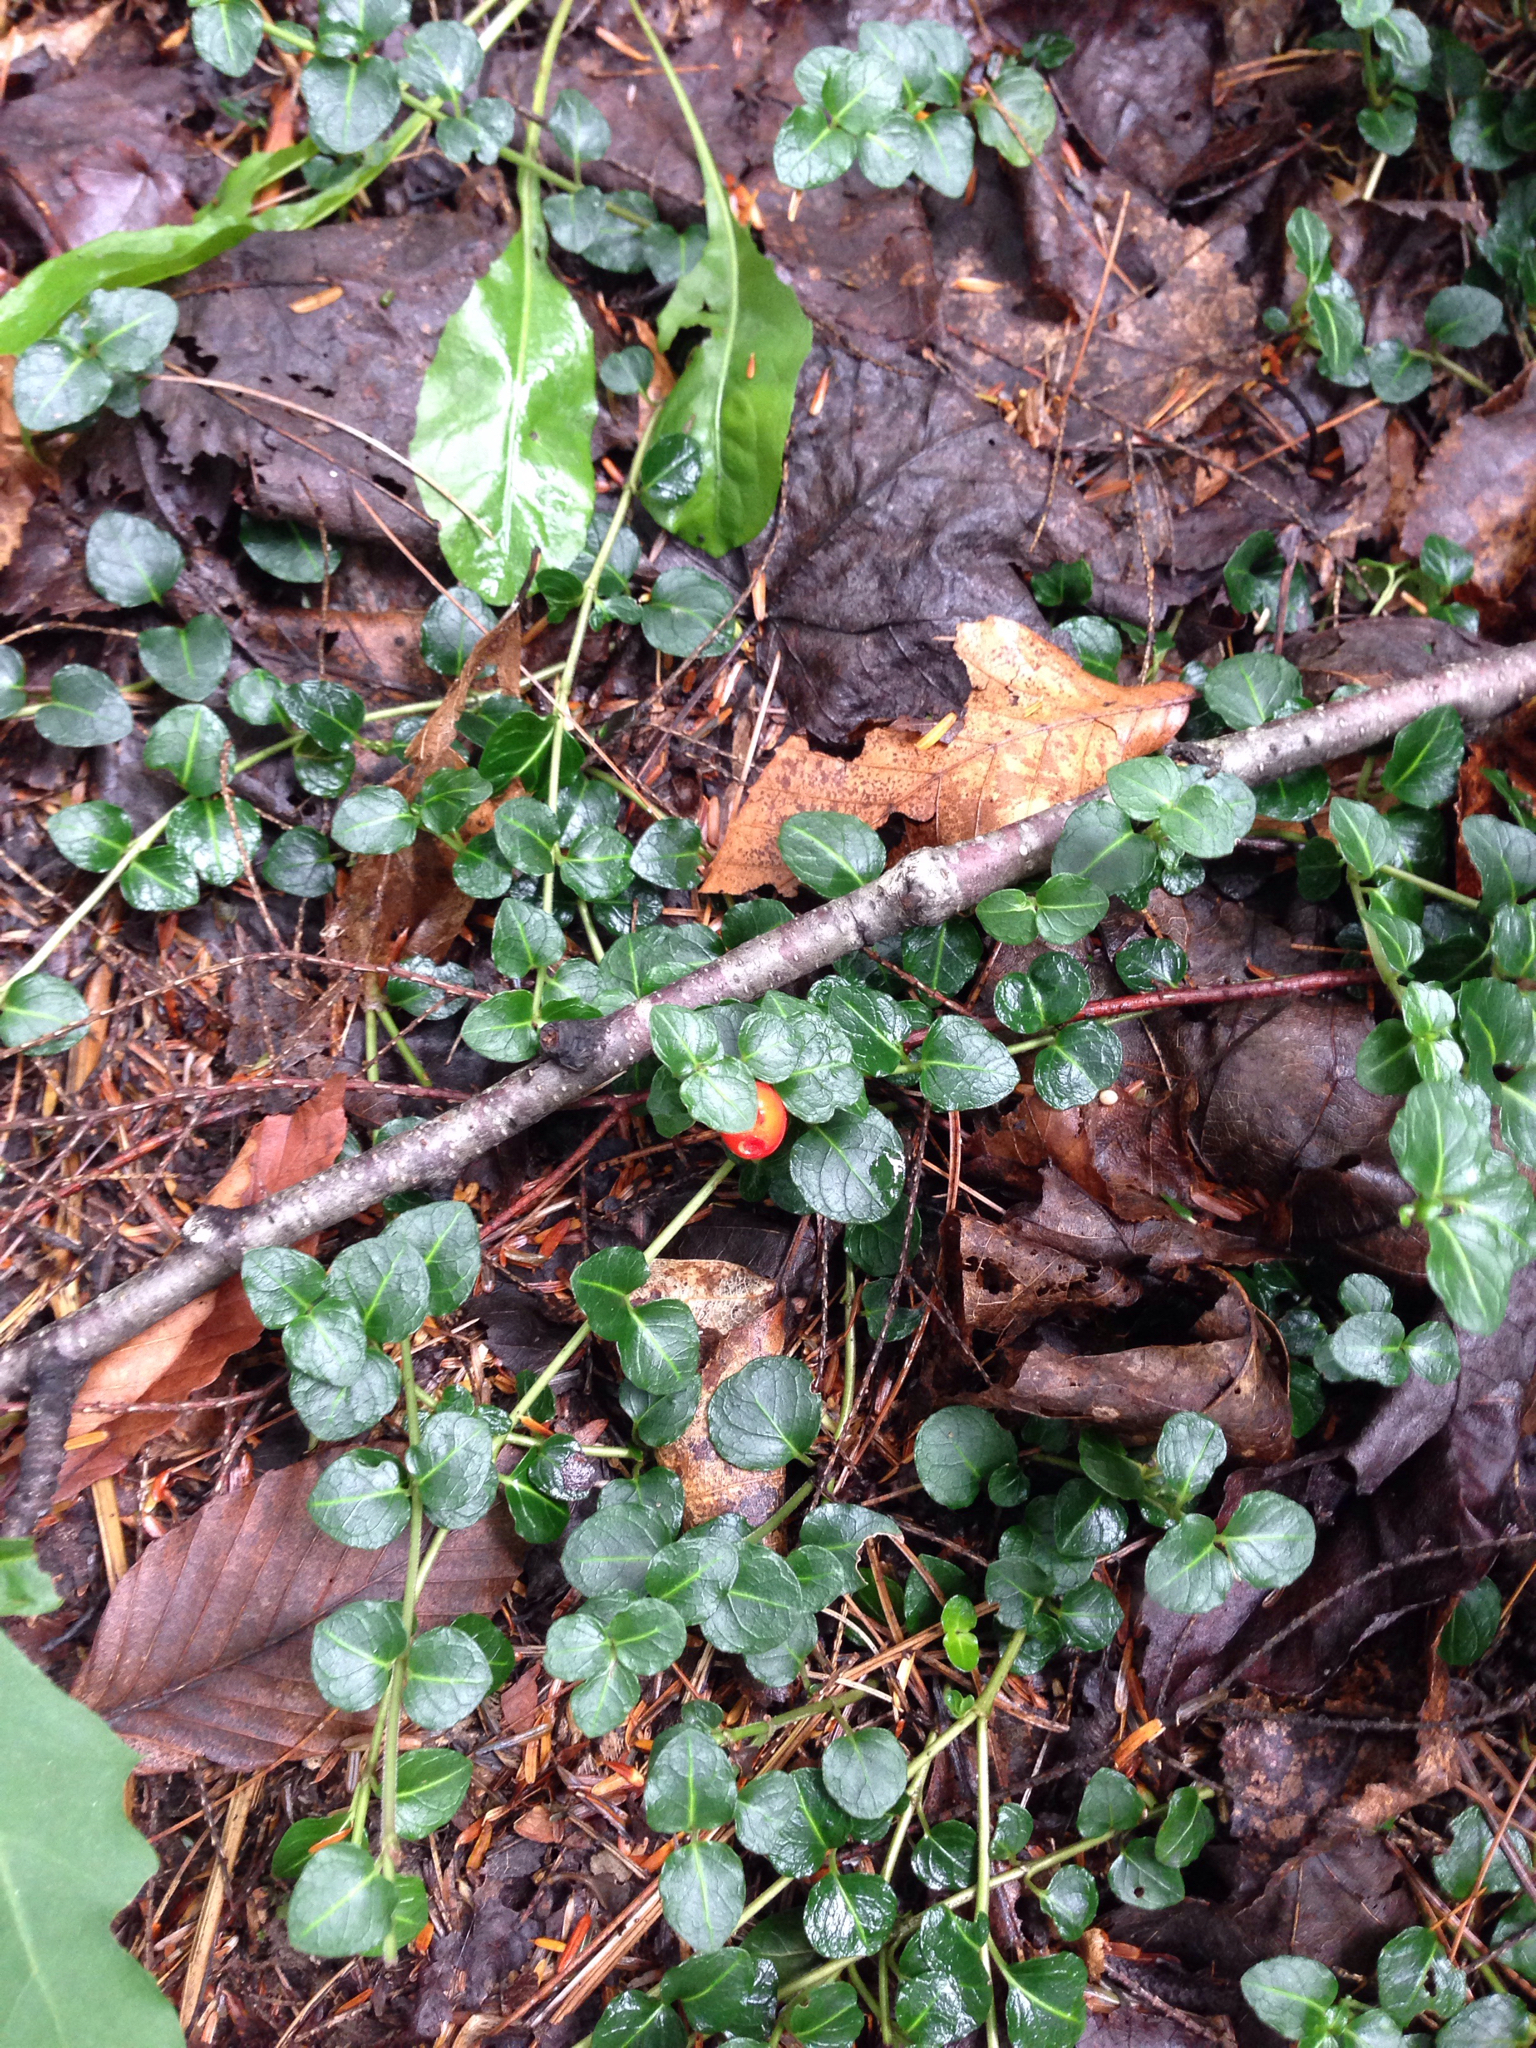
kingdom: Plantae
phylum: Tracheophyta
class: Magnoliopsida
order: Gentianales
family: Rubiaceae
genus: Mitchella
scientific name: Mitchella repens
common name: Partridge-berry
